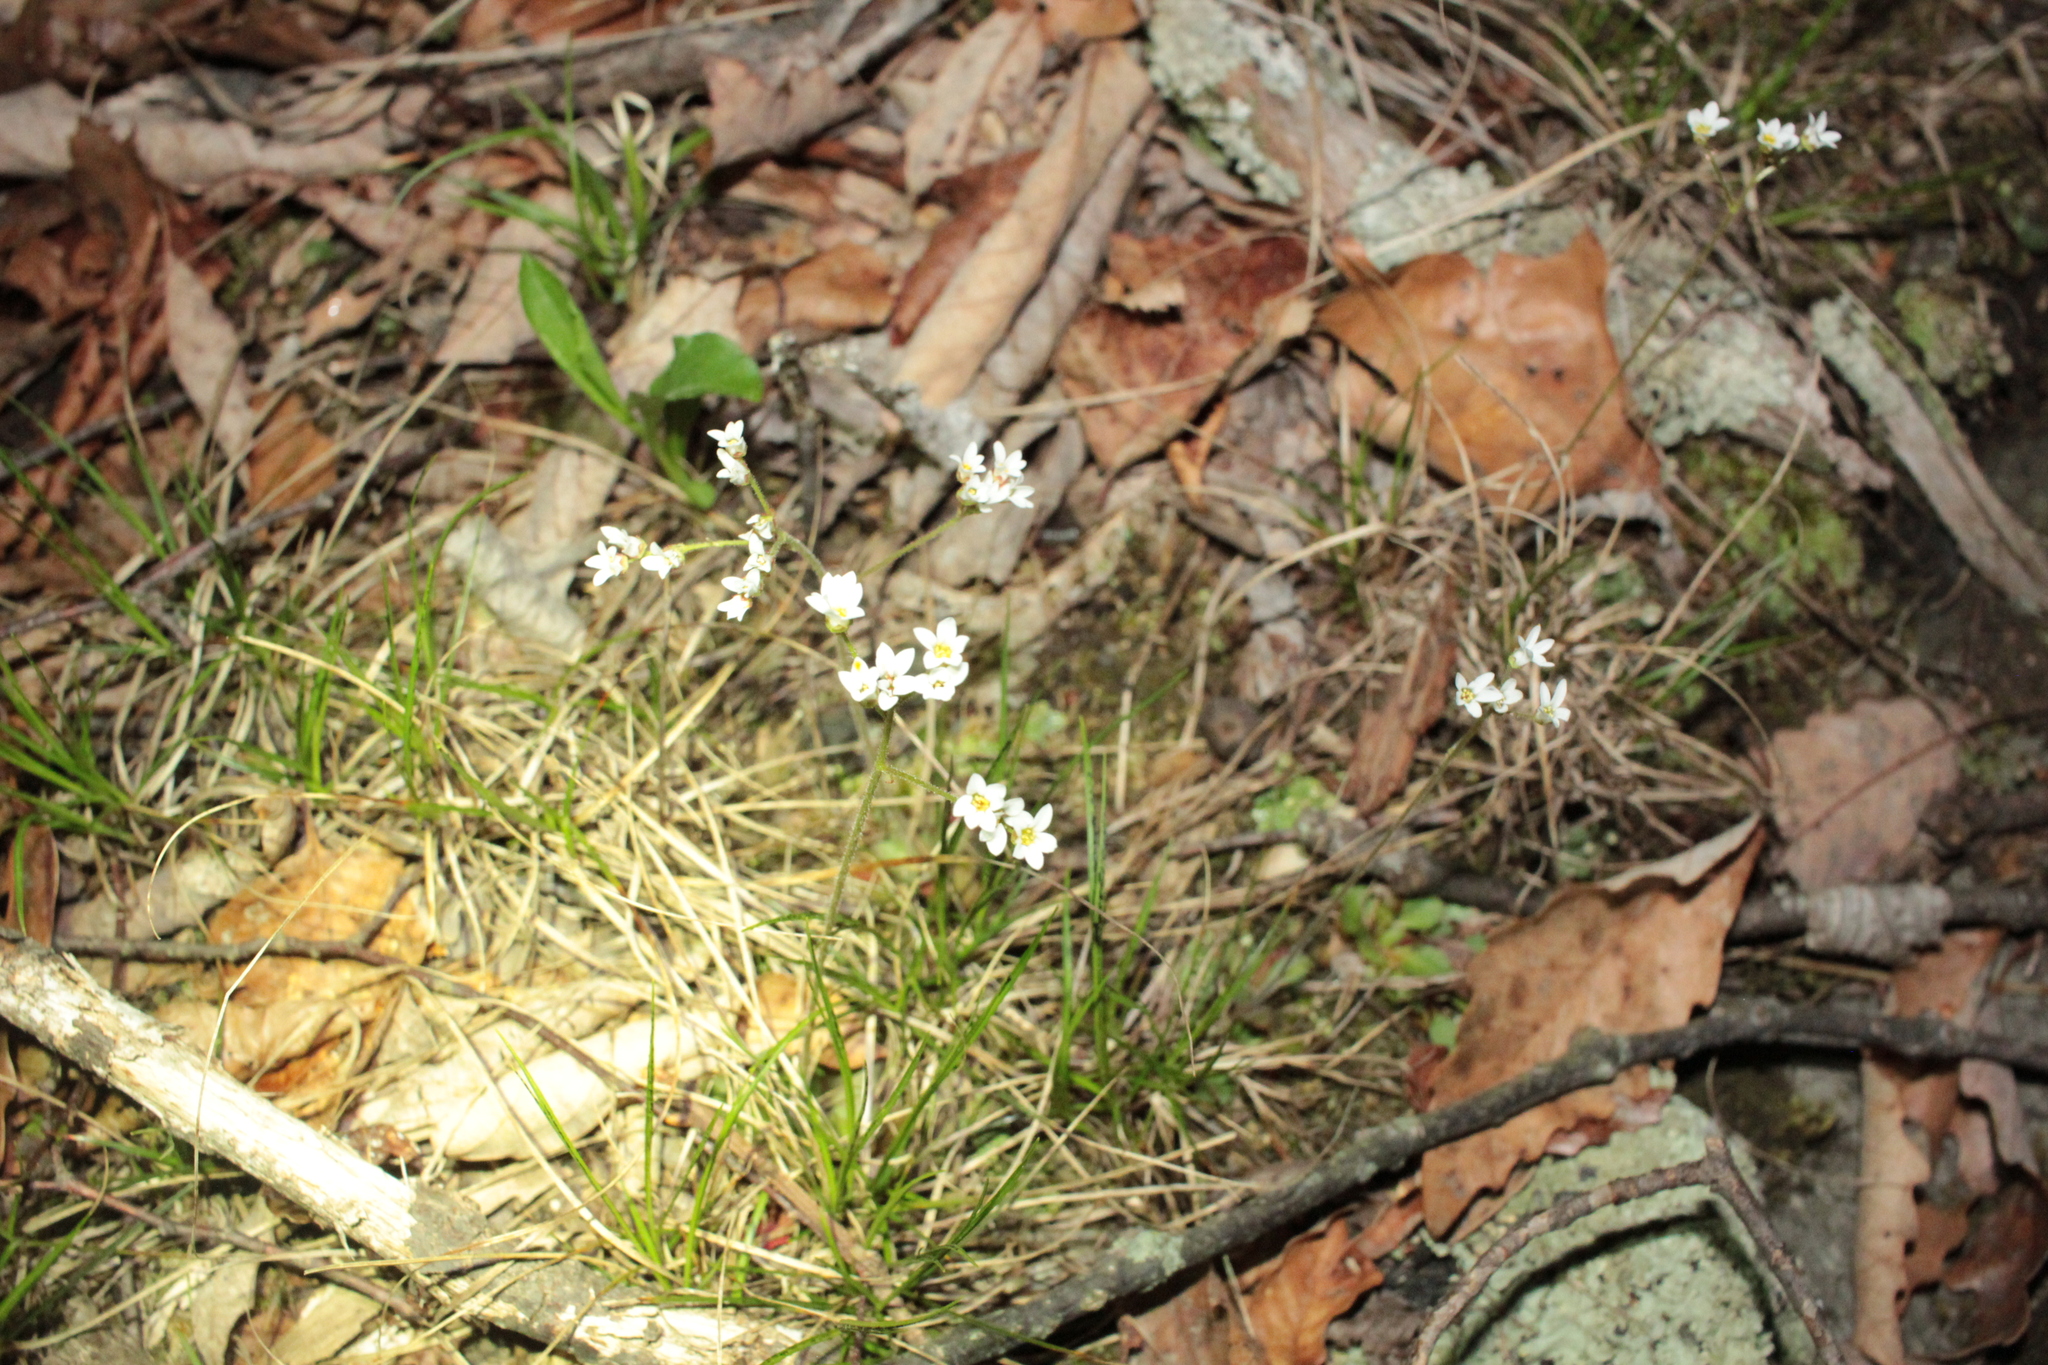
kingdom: Plantae
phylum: Tracheophyta
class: Magnoliopsida
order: Saxifragales
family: Saxifragaceae
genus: Micranthes
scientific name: Micranthes virginiensis
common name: Early saxifrage
